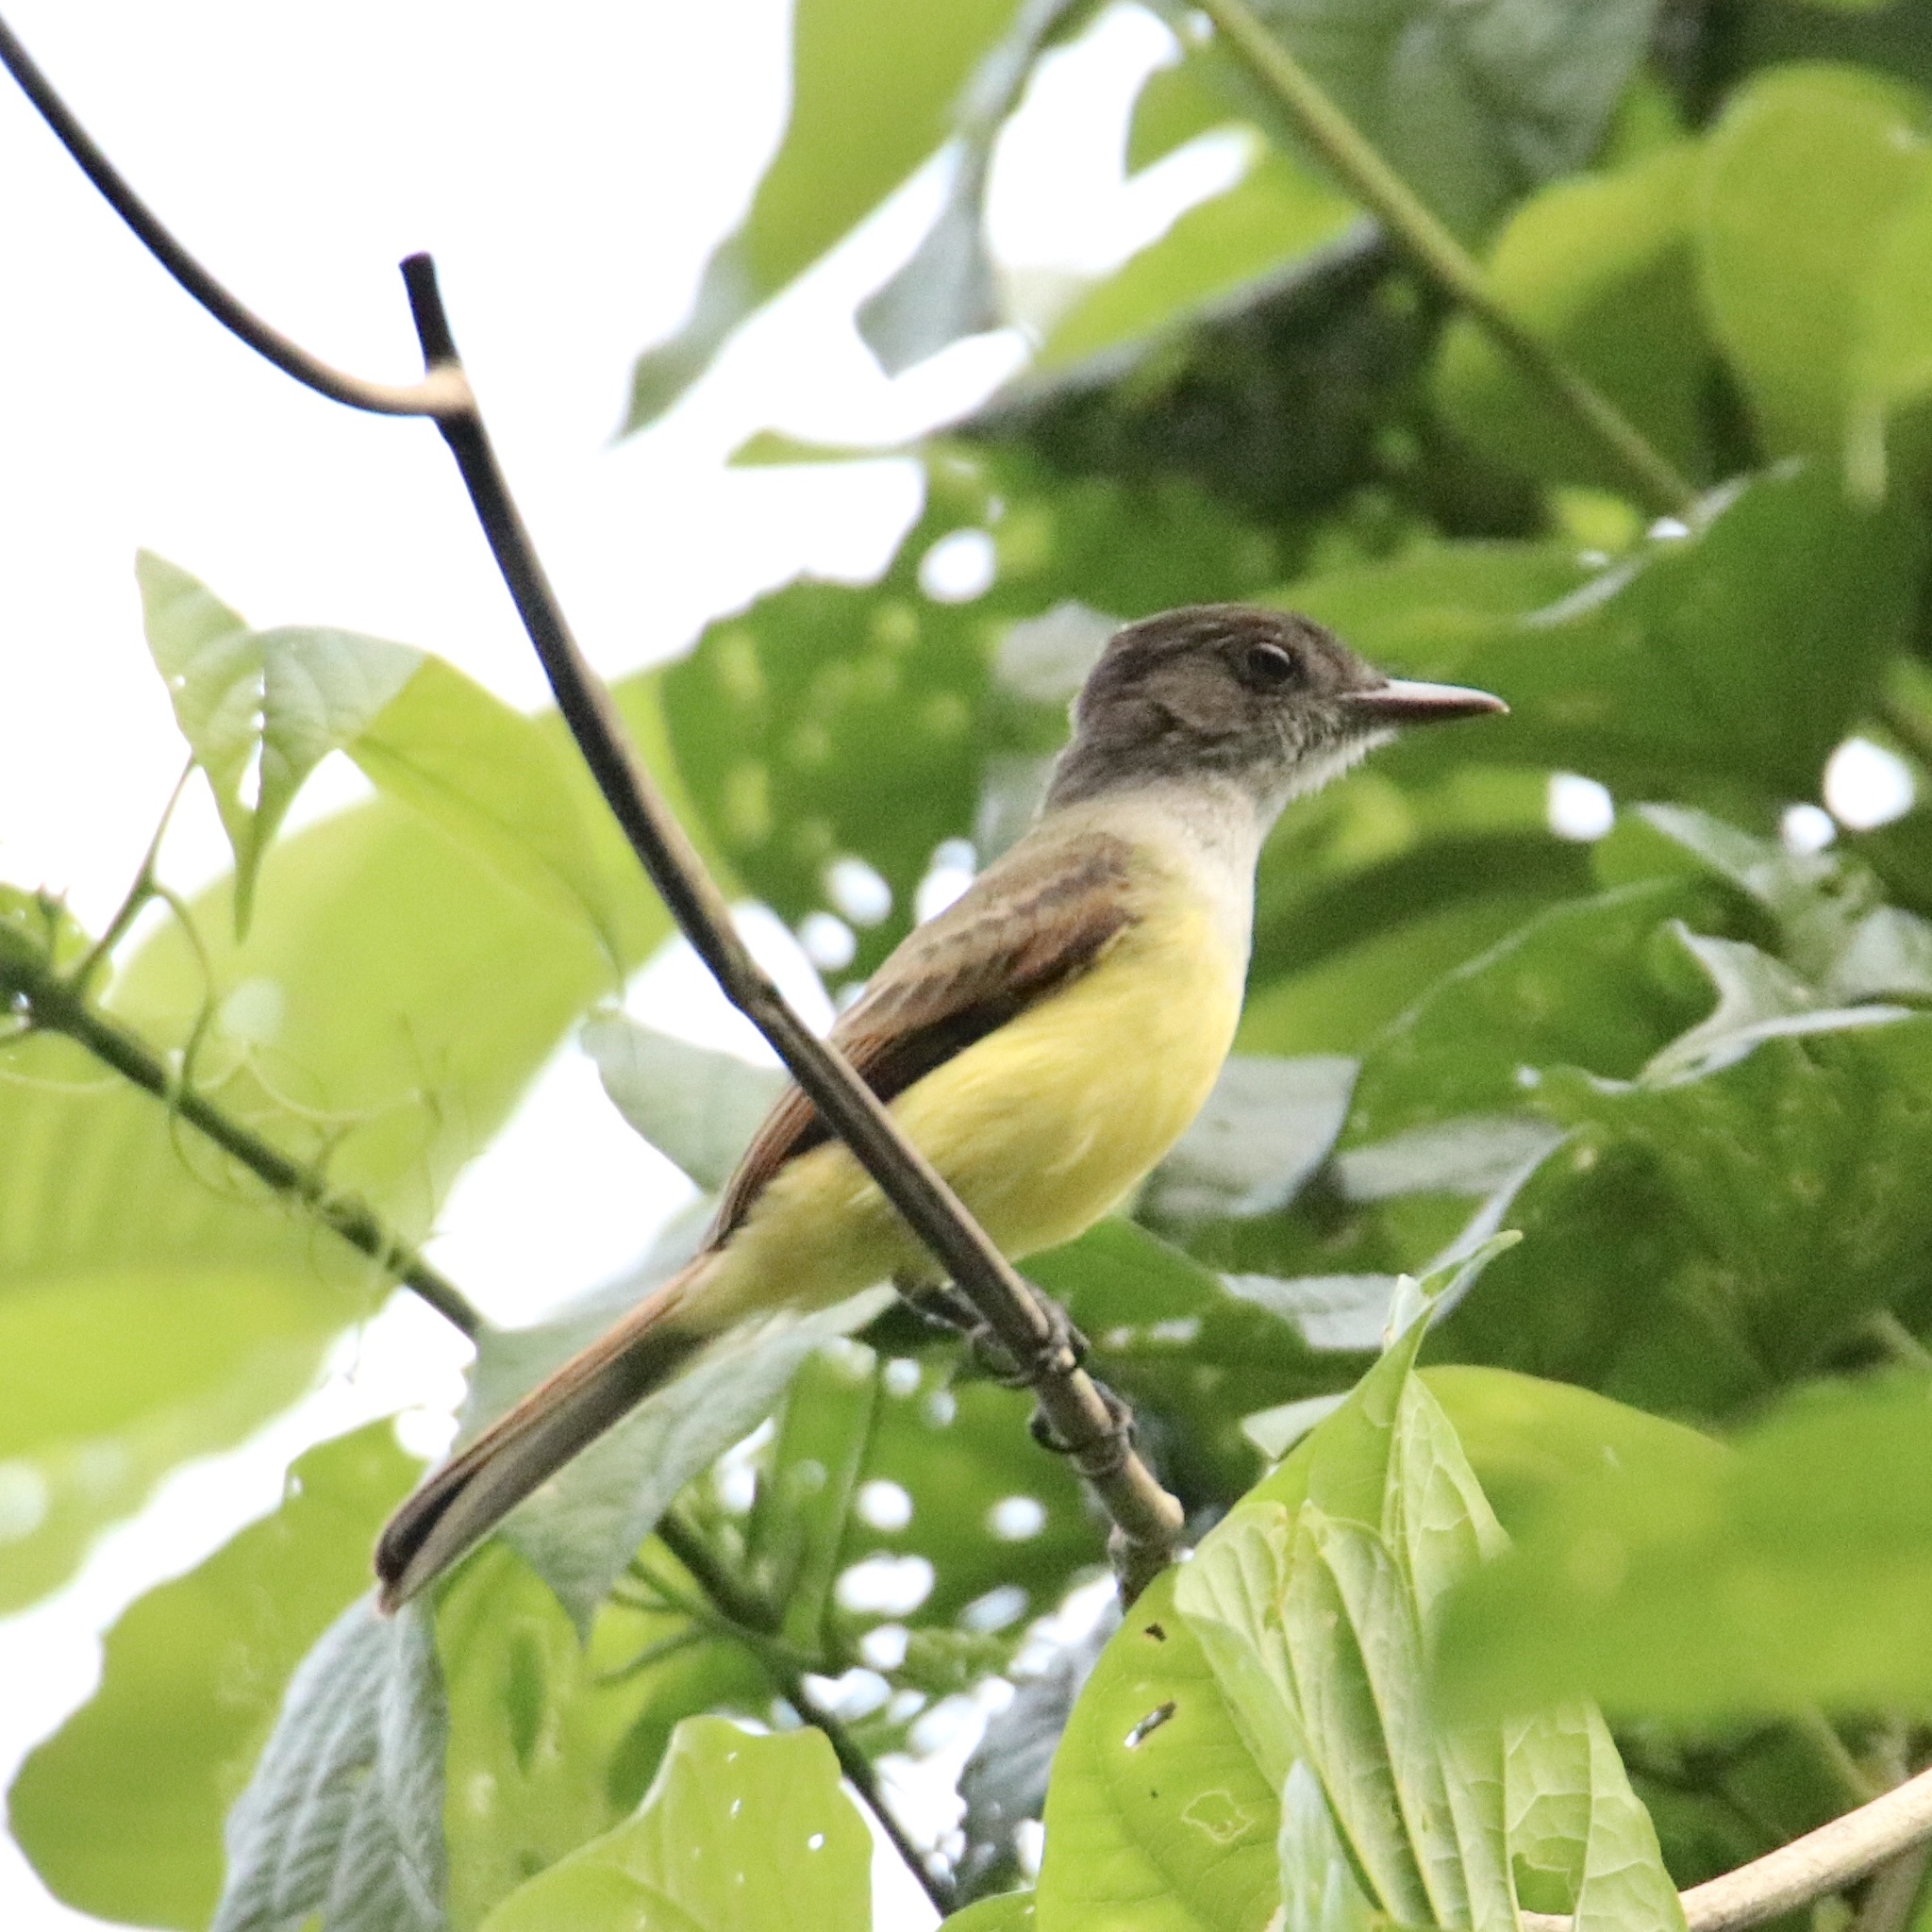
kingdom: Animalia
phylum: Chordata
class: Aves
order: Passeriformes
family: Tyrannidae
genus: Myiarchus
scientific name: Myiarchus tuberculifer
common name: Dusky-capped flycatcher
